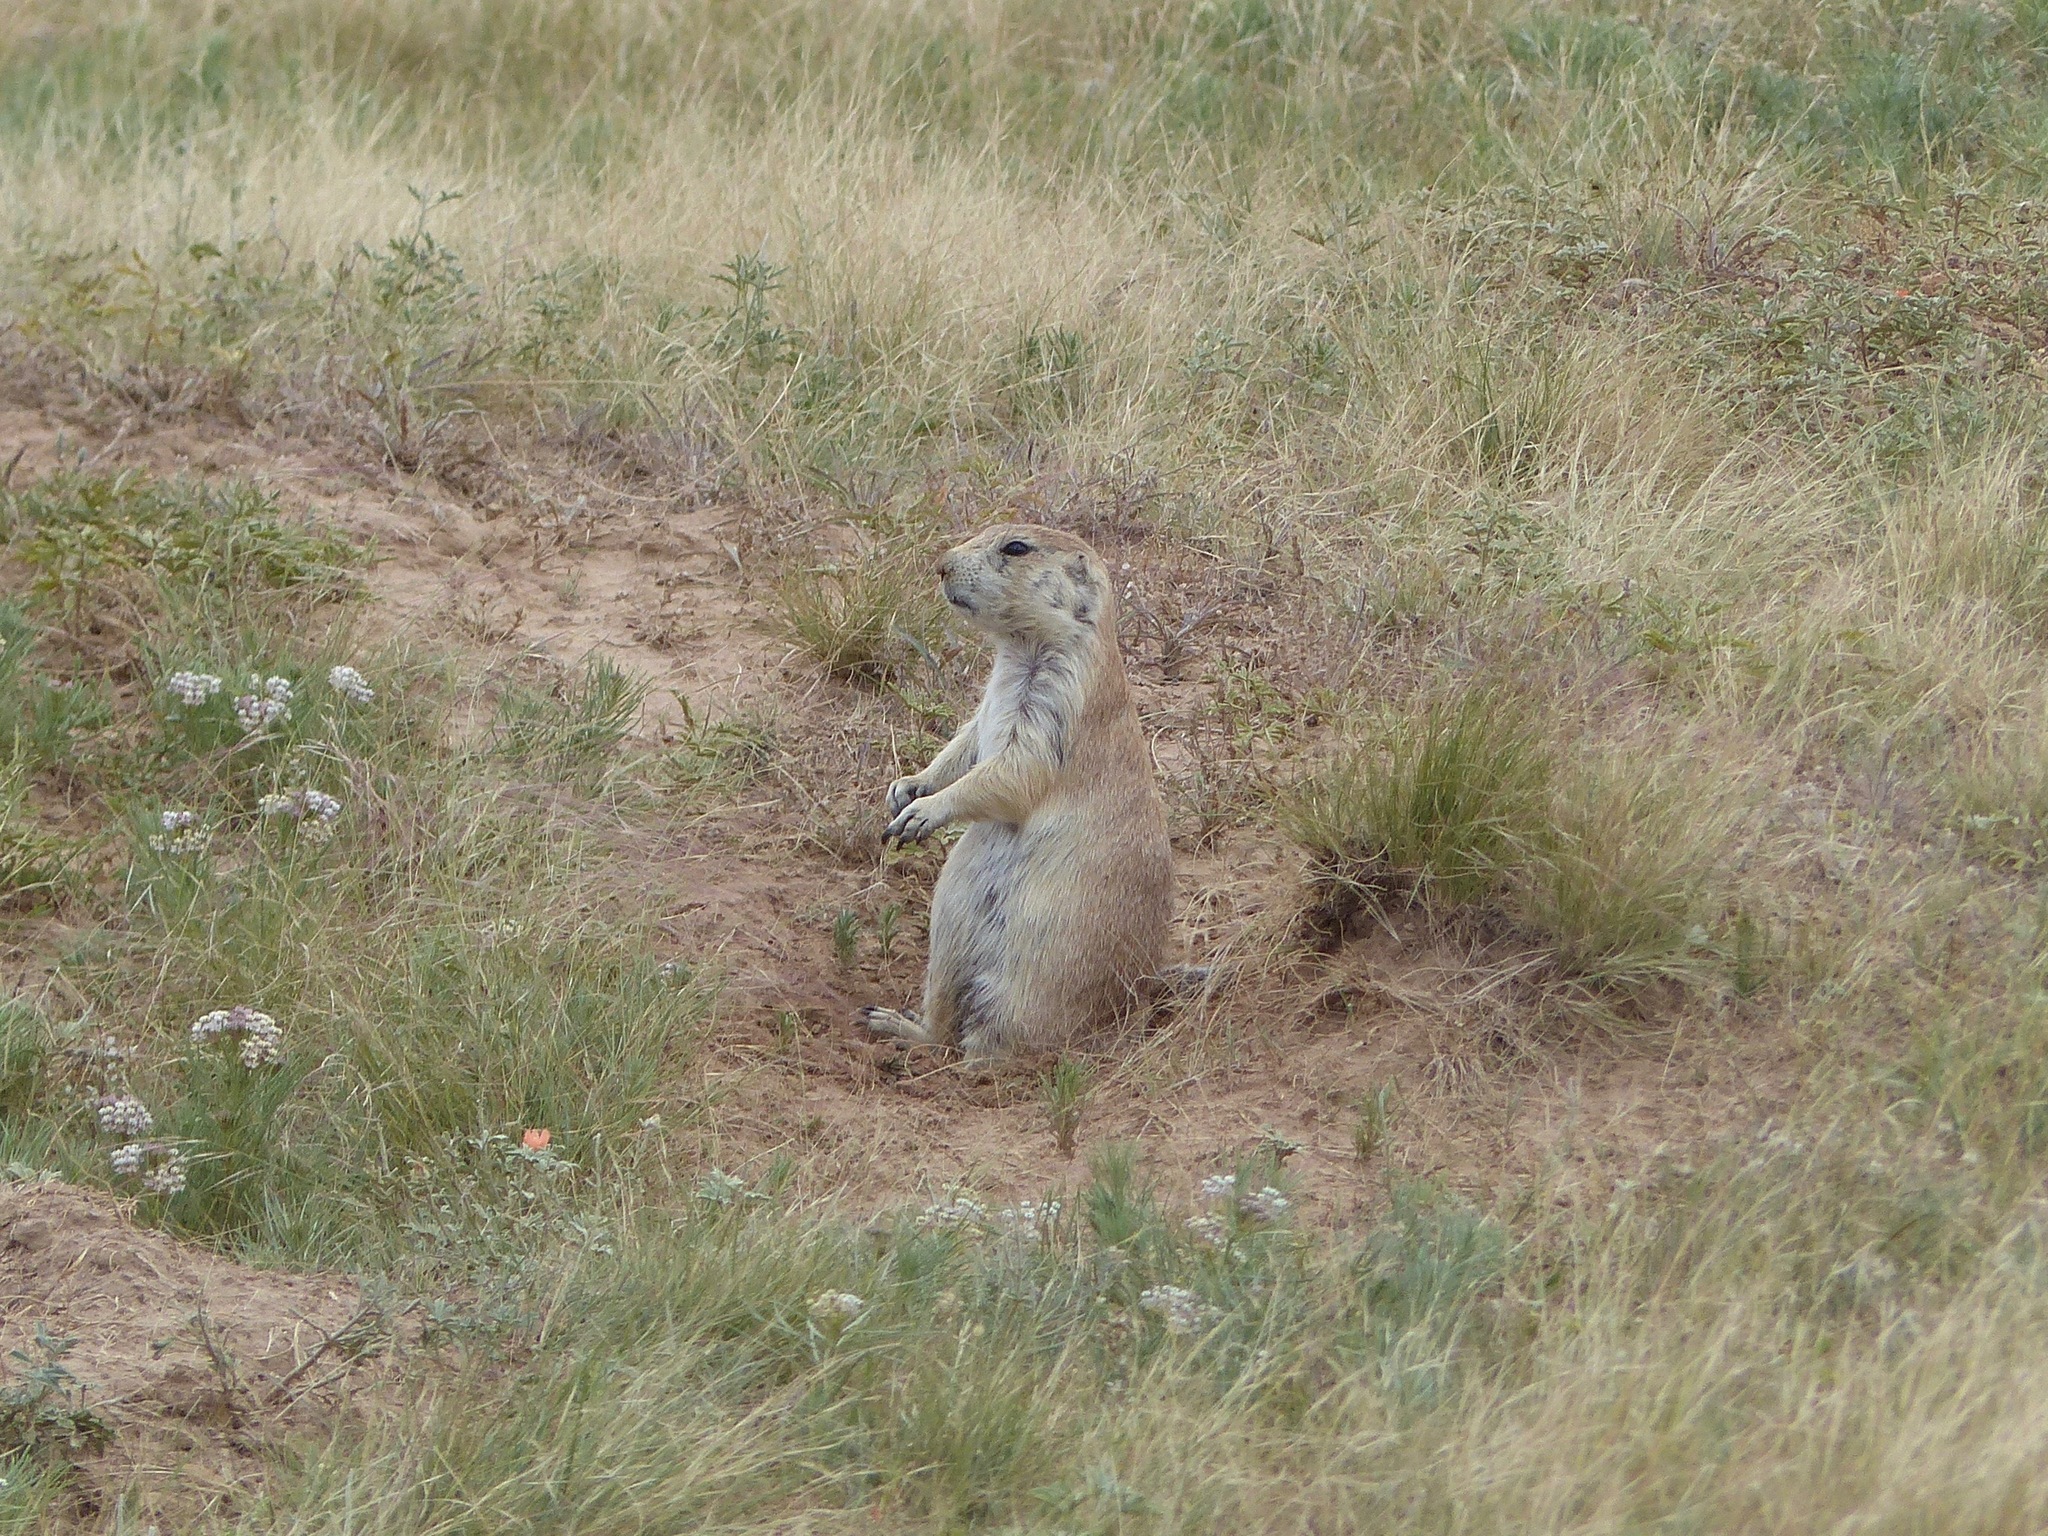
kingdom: Animalia
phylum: Chordata
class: Mammalia
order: Rodentia
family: Sciuridae
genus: Cynomys
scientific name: Cynomys ludovicianus
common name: Black-tailed prairie dog
